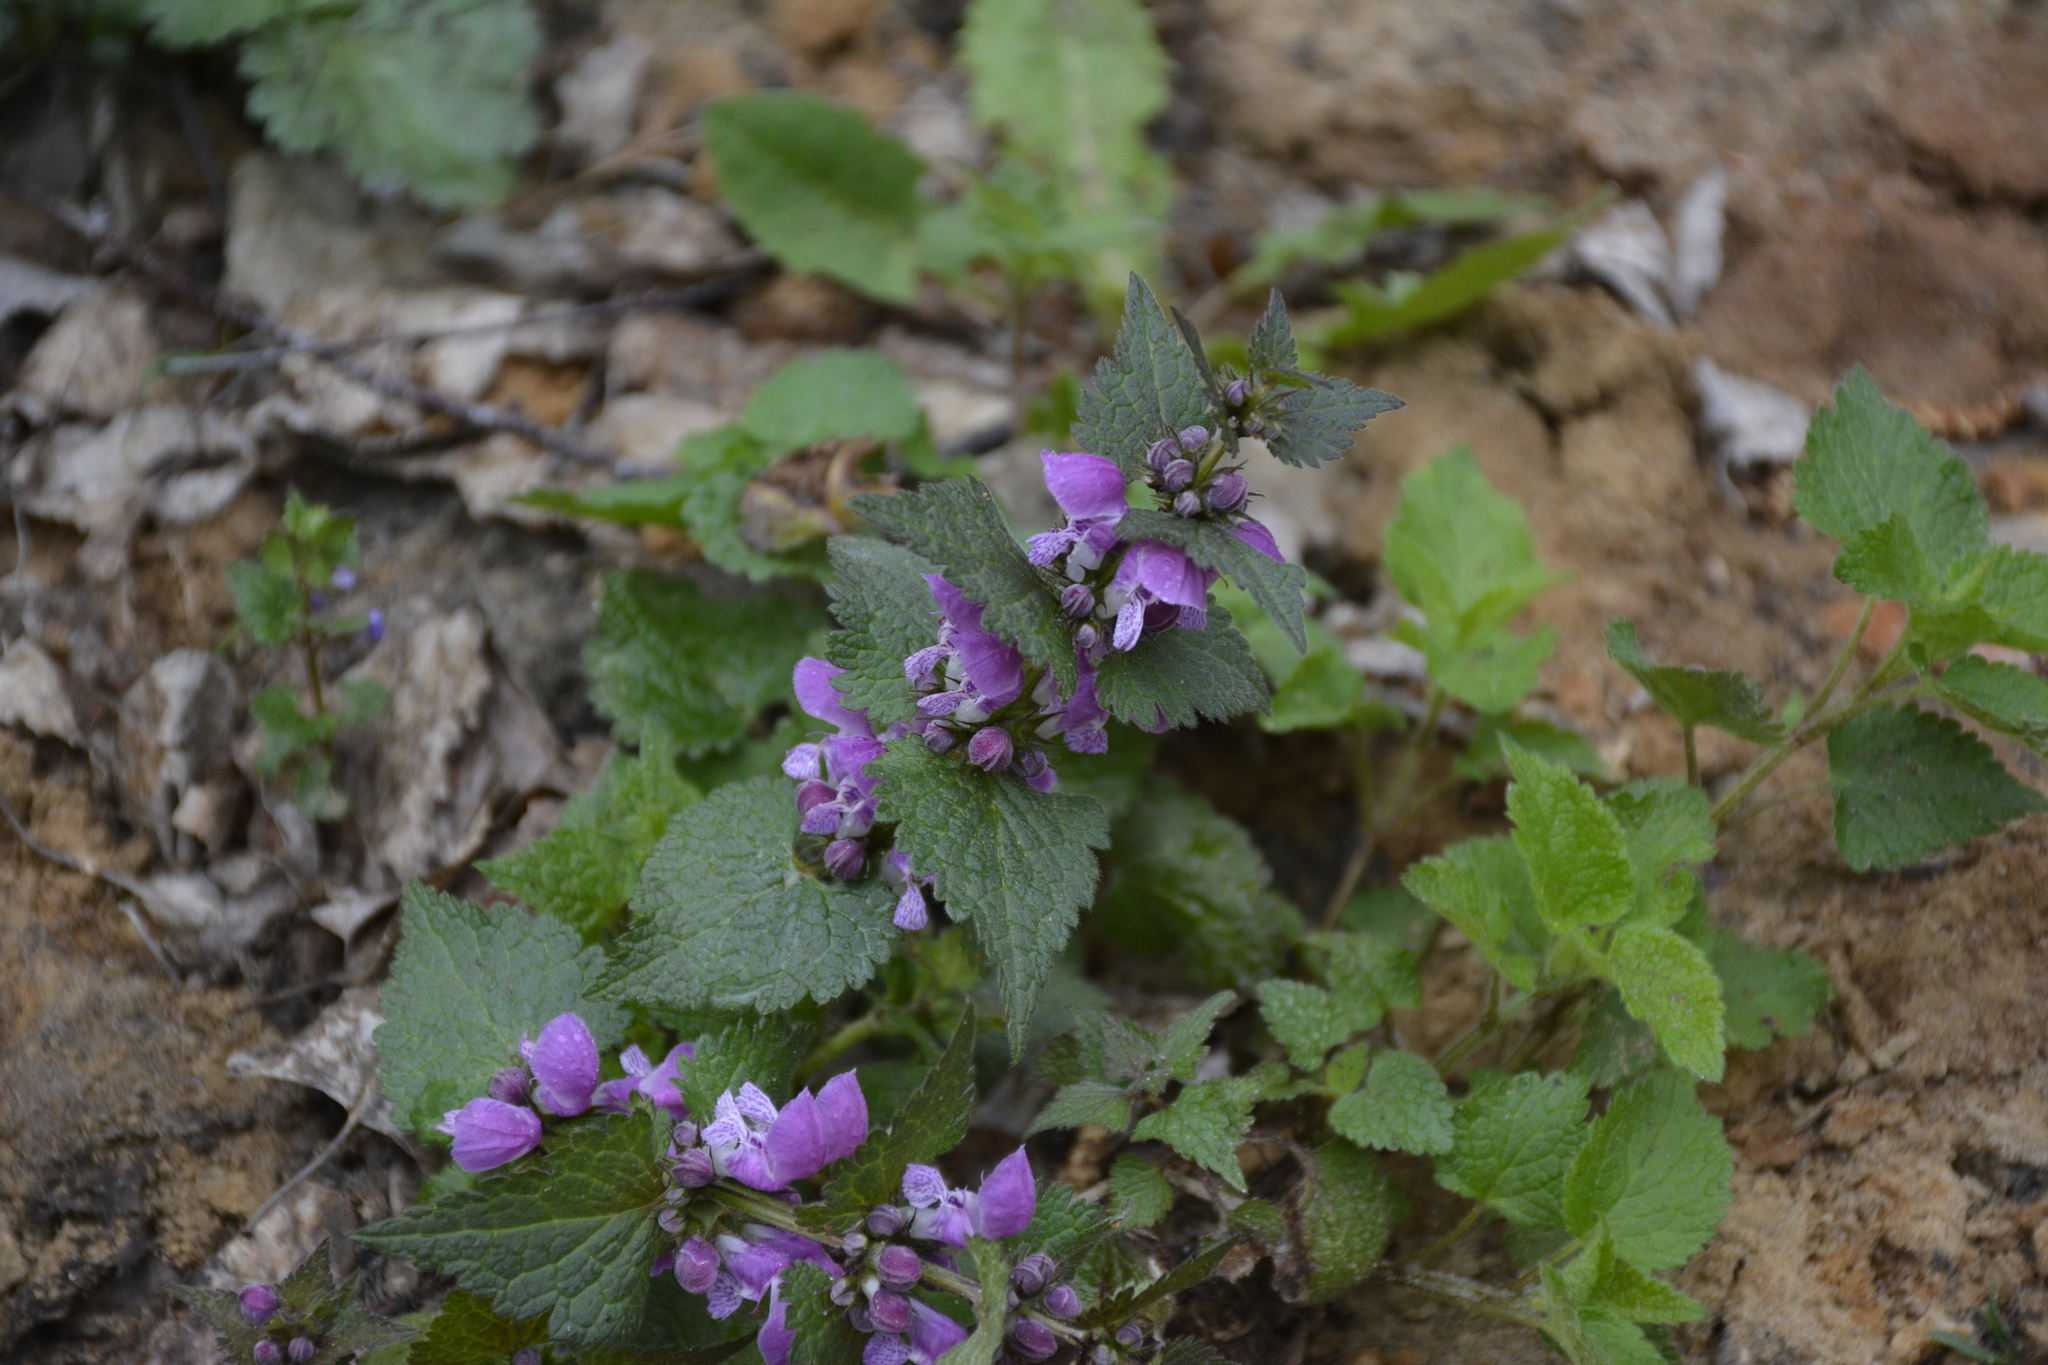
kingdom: Plantae
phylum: Tracheophyta
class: Magnoliopsida
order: Lamiales
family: Lamiaceae
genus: Lamium
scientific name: Lamium maculatum
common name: Spotted dead-nettle
